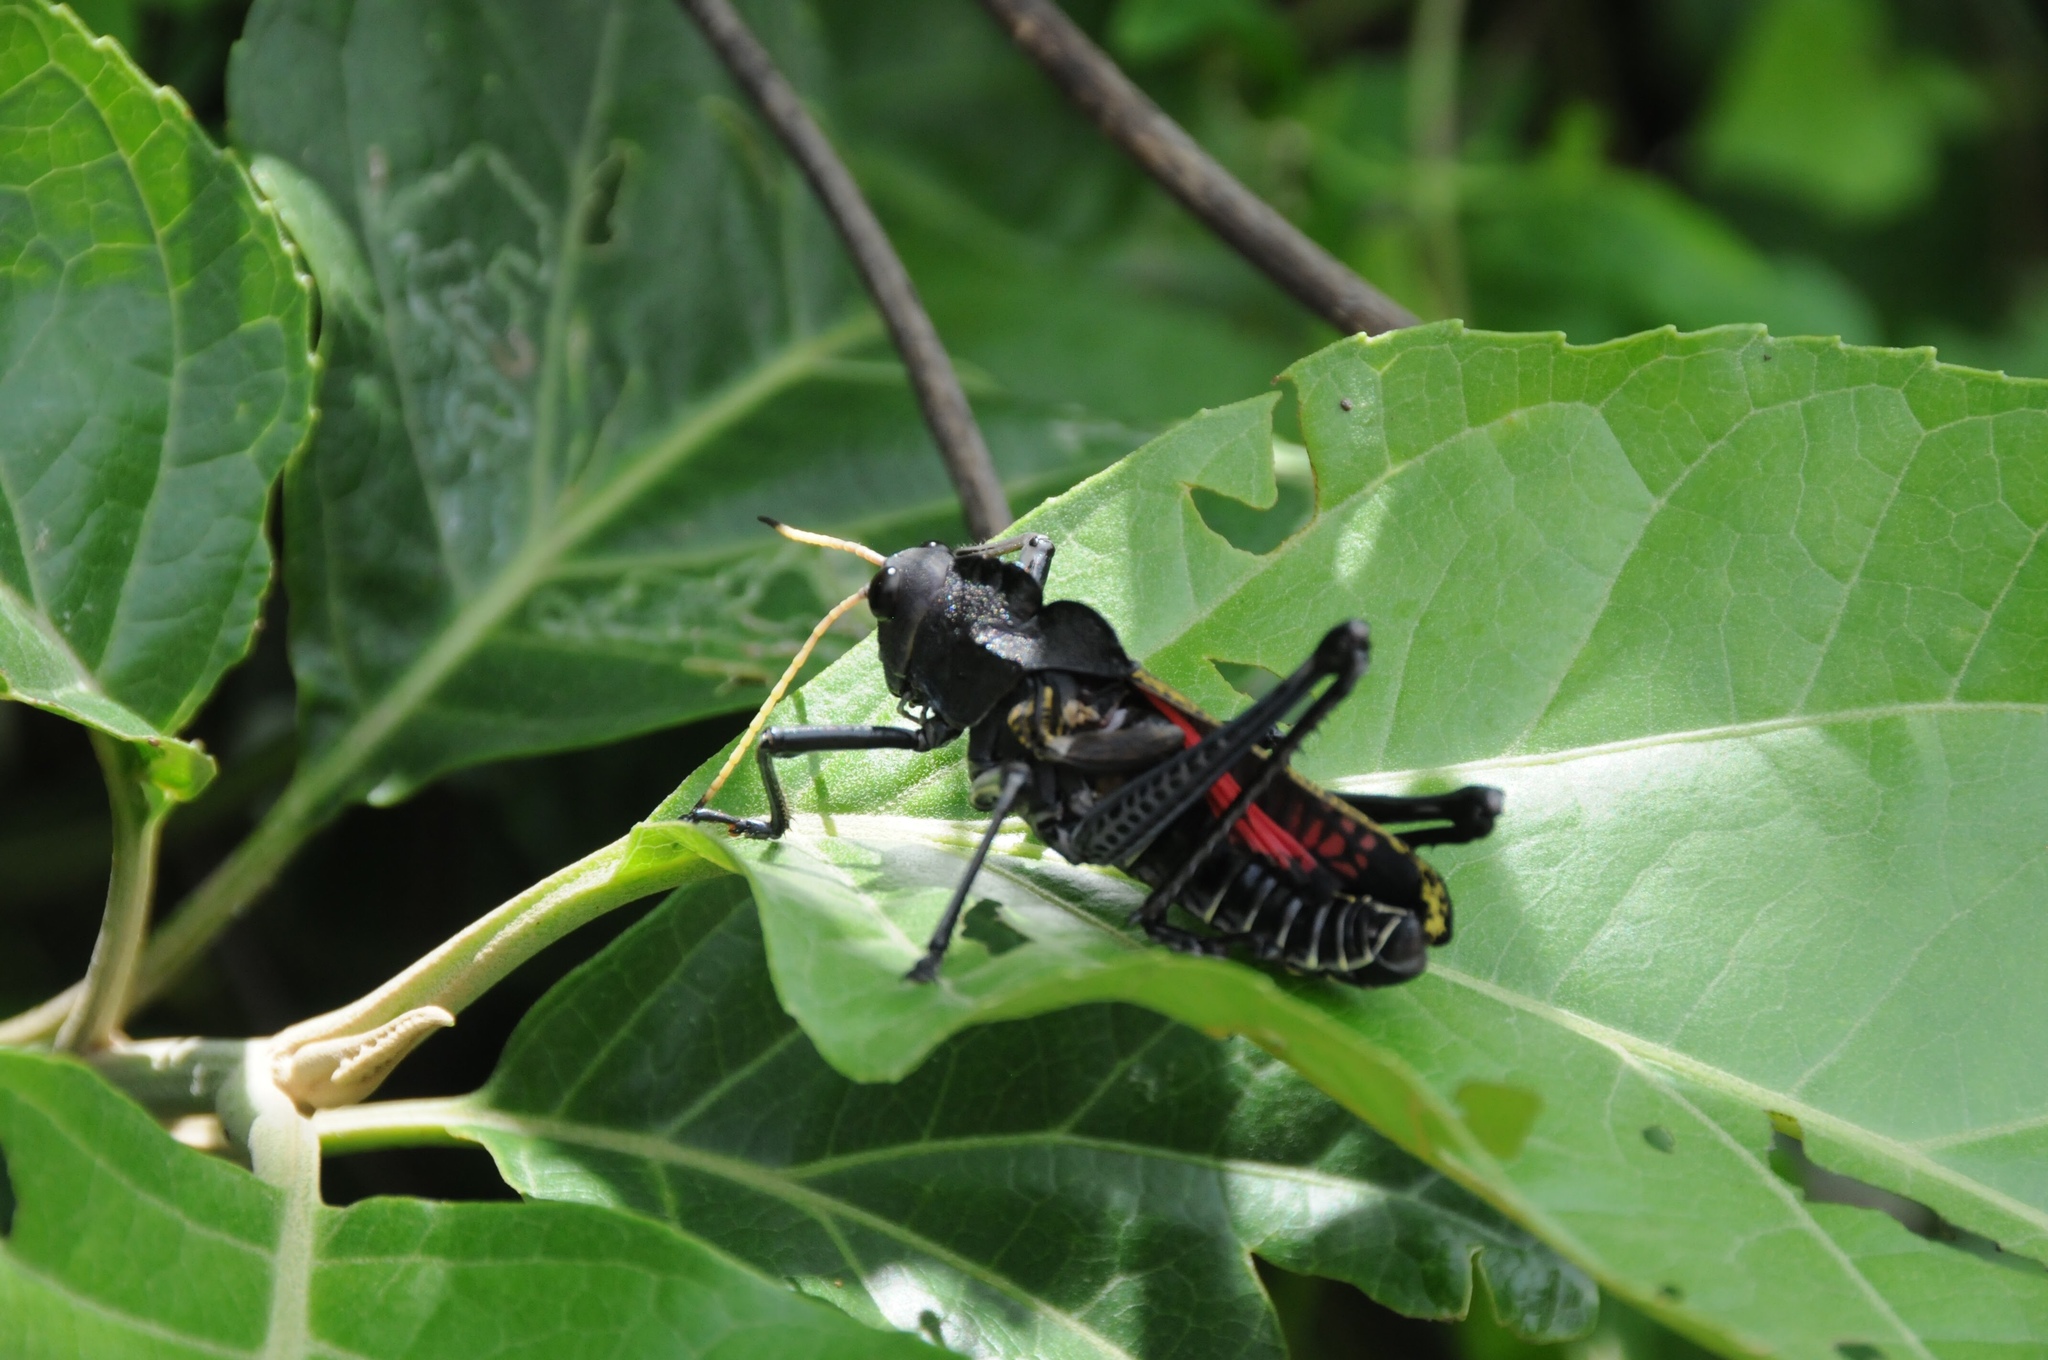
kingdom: Animalia
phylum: Arthropoda
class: Insecta
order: Orthoptera
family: Romaleidae
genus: Taeniopoda
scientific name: Taeniopoda centurio
